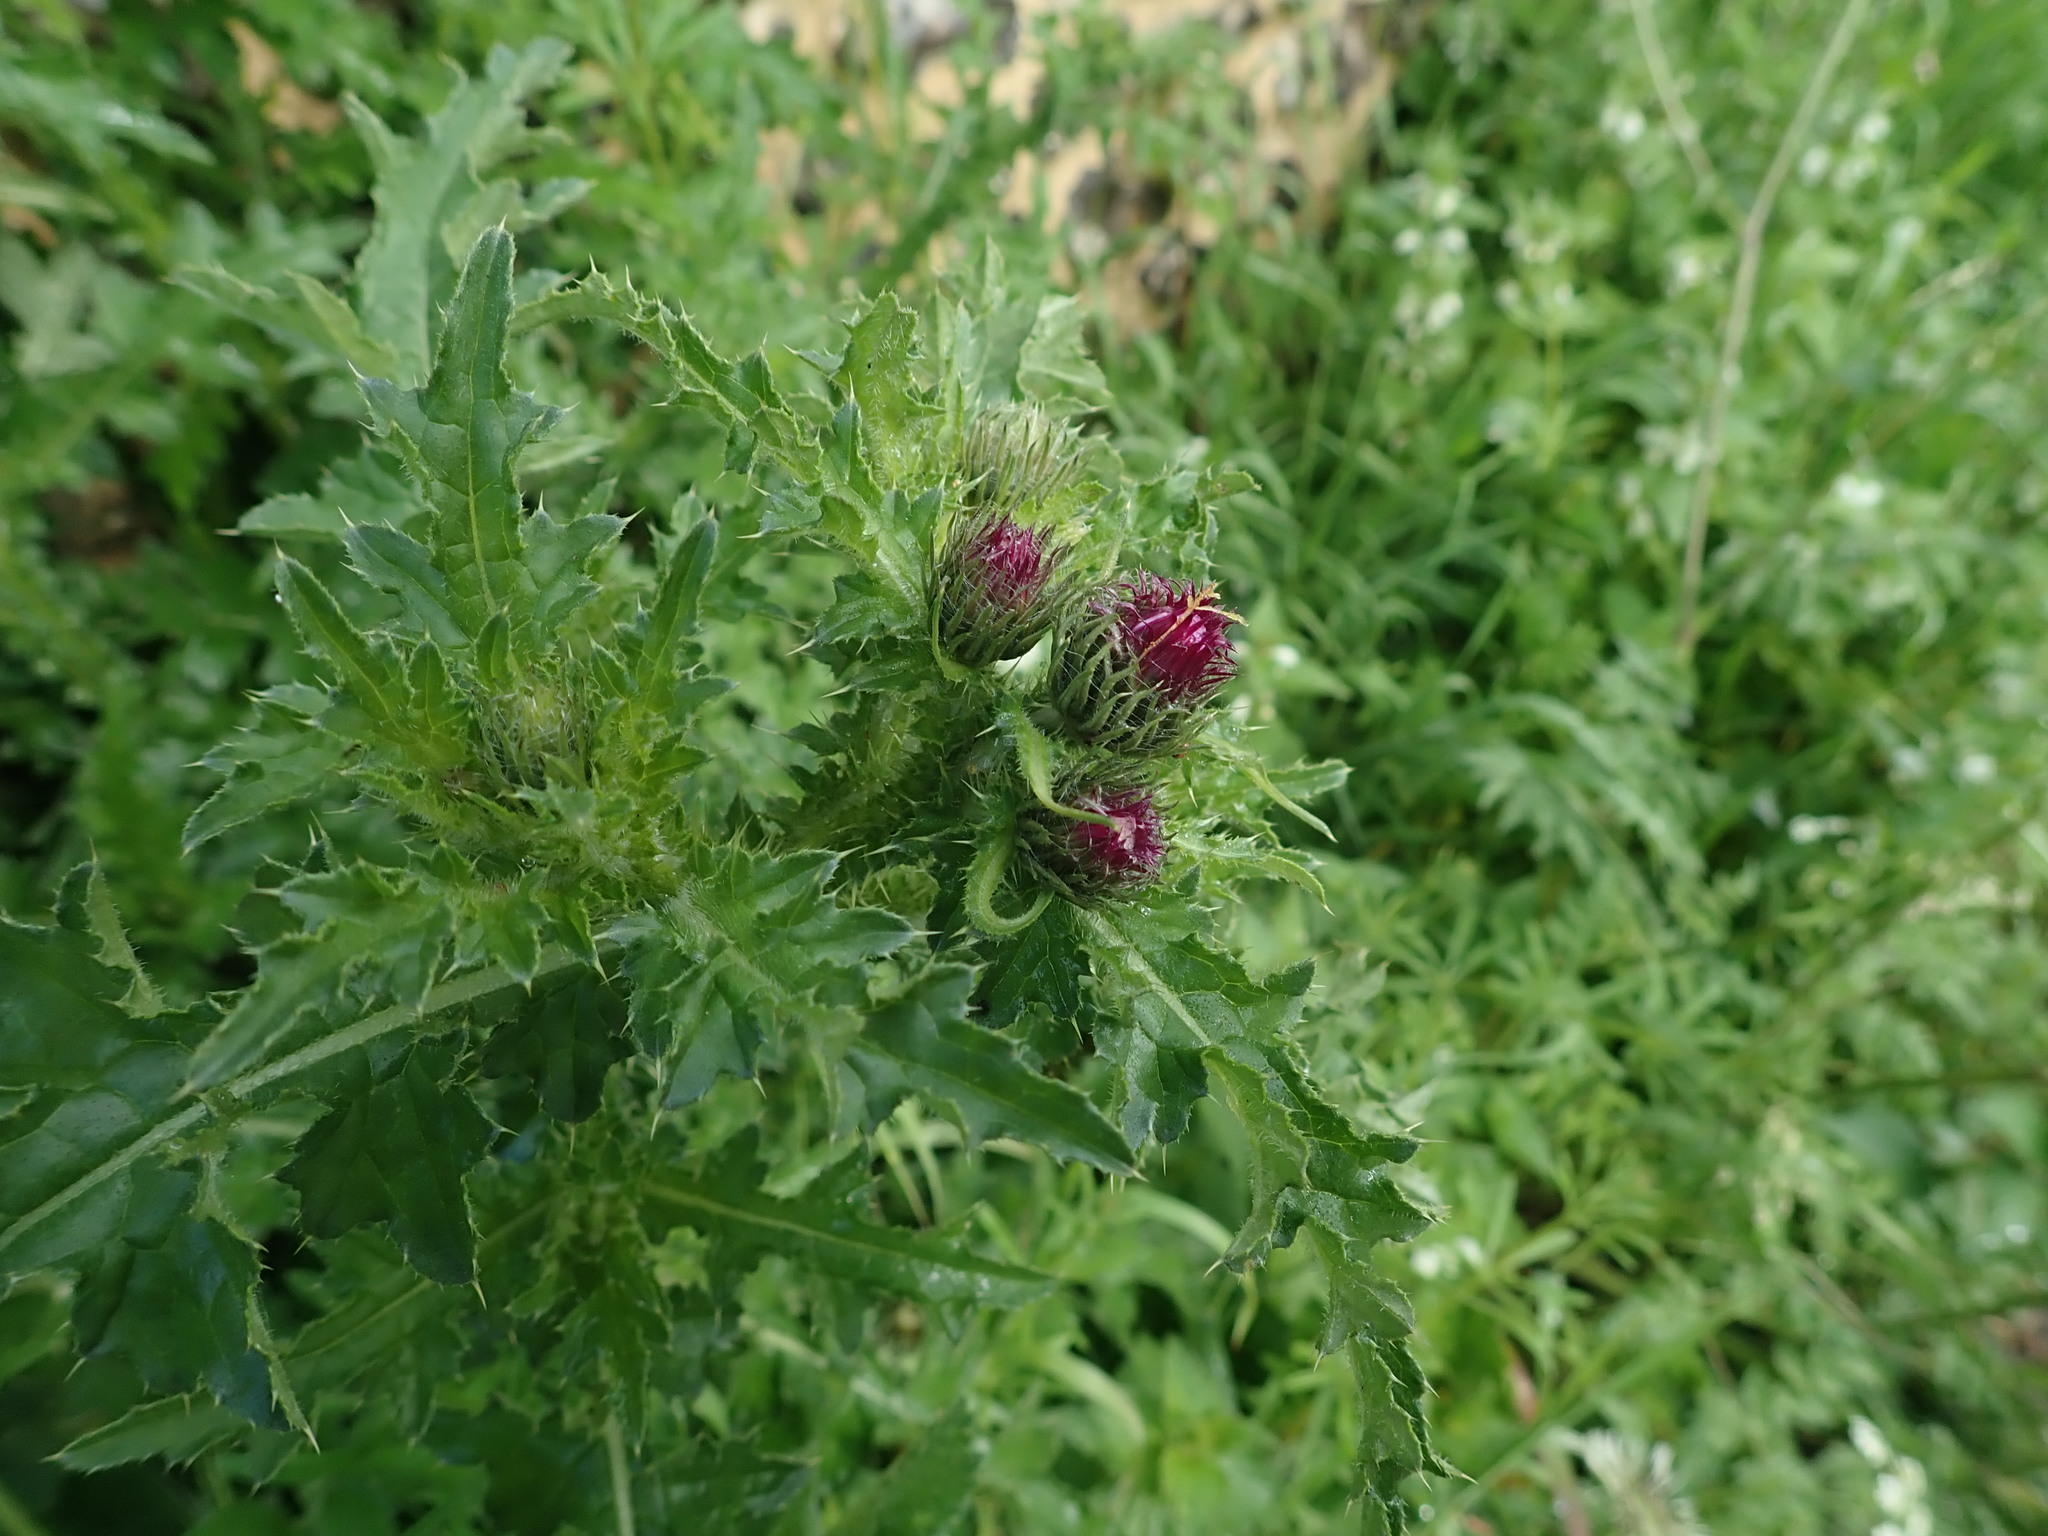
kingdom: Plantae
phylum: Tracheophyta
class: Magnoliopsida
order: Asterales
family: Asteraceae
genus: Carduus
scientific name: Carduus crispus
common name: Welted thistle
